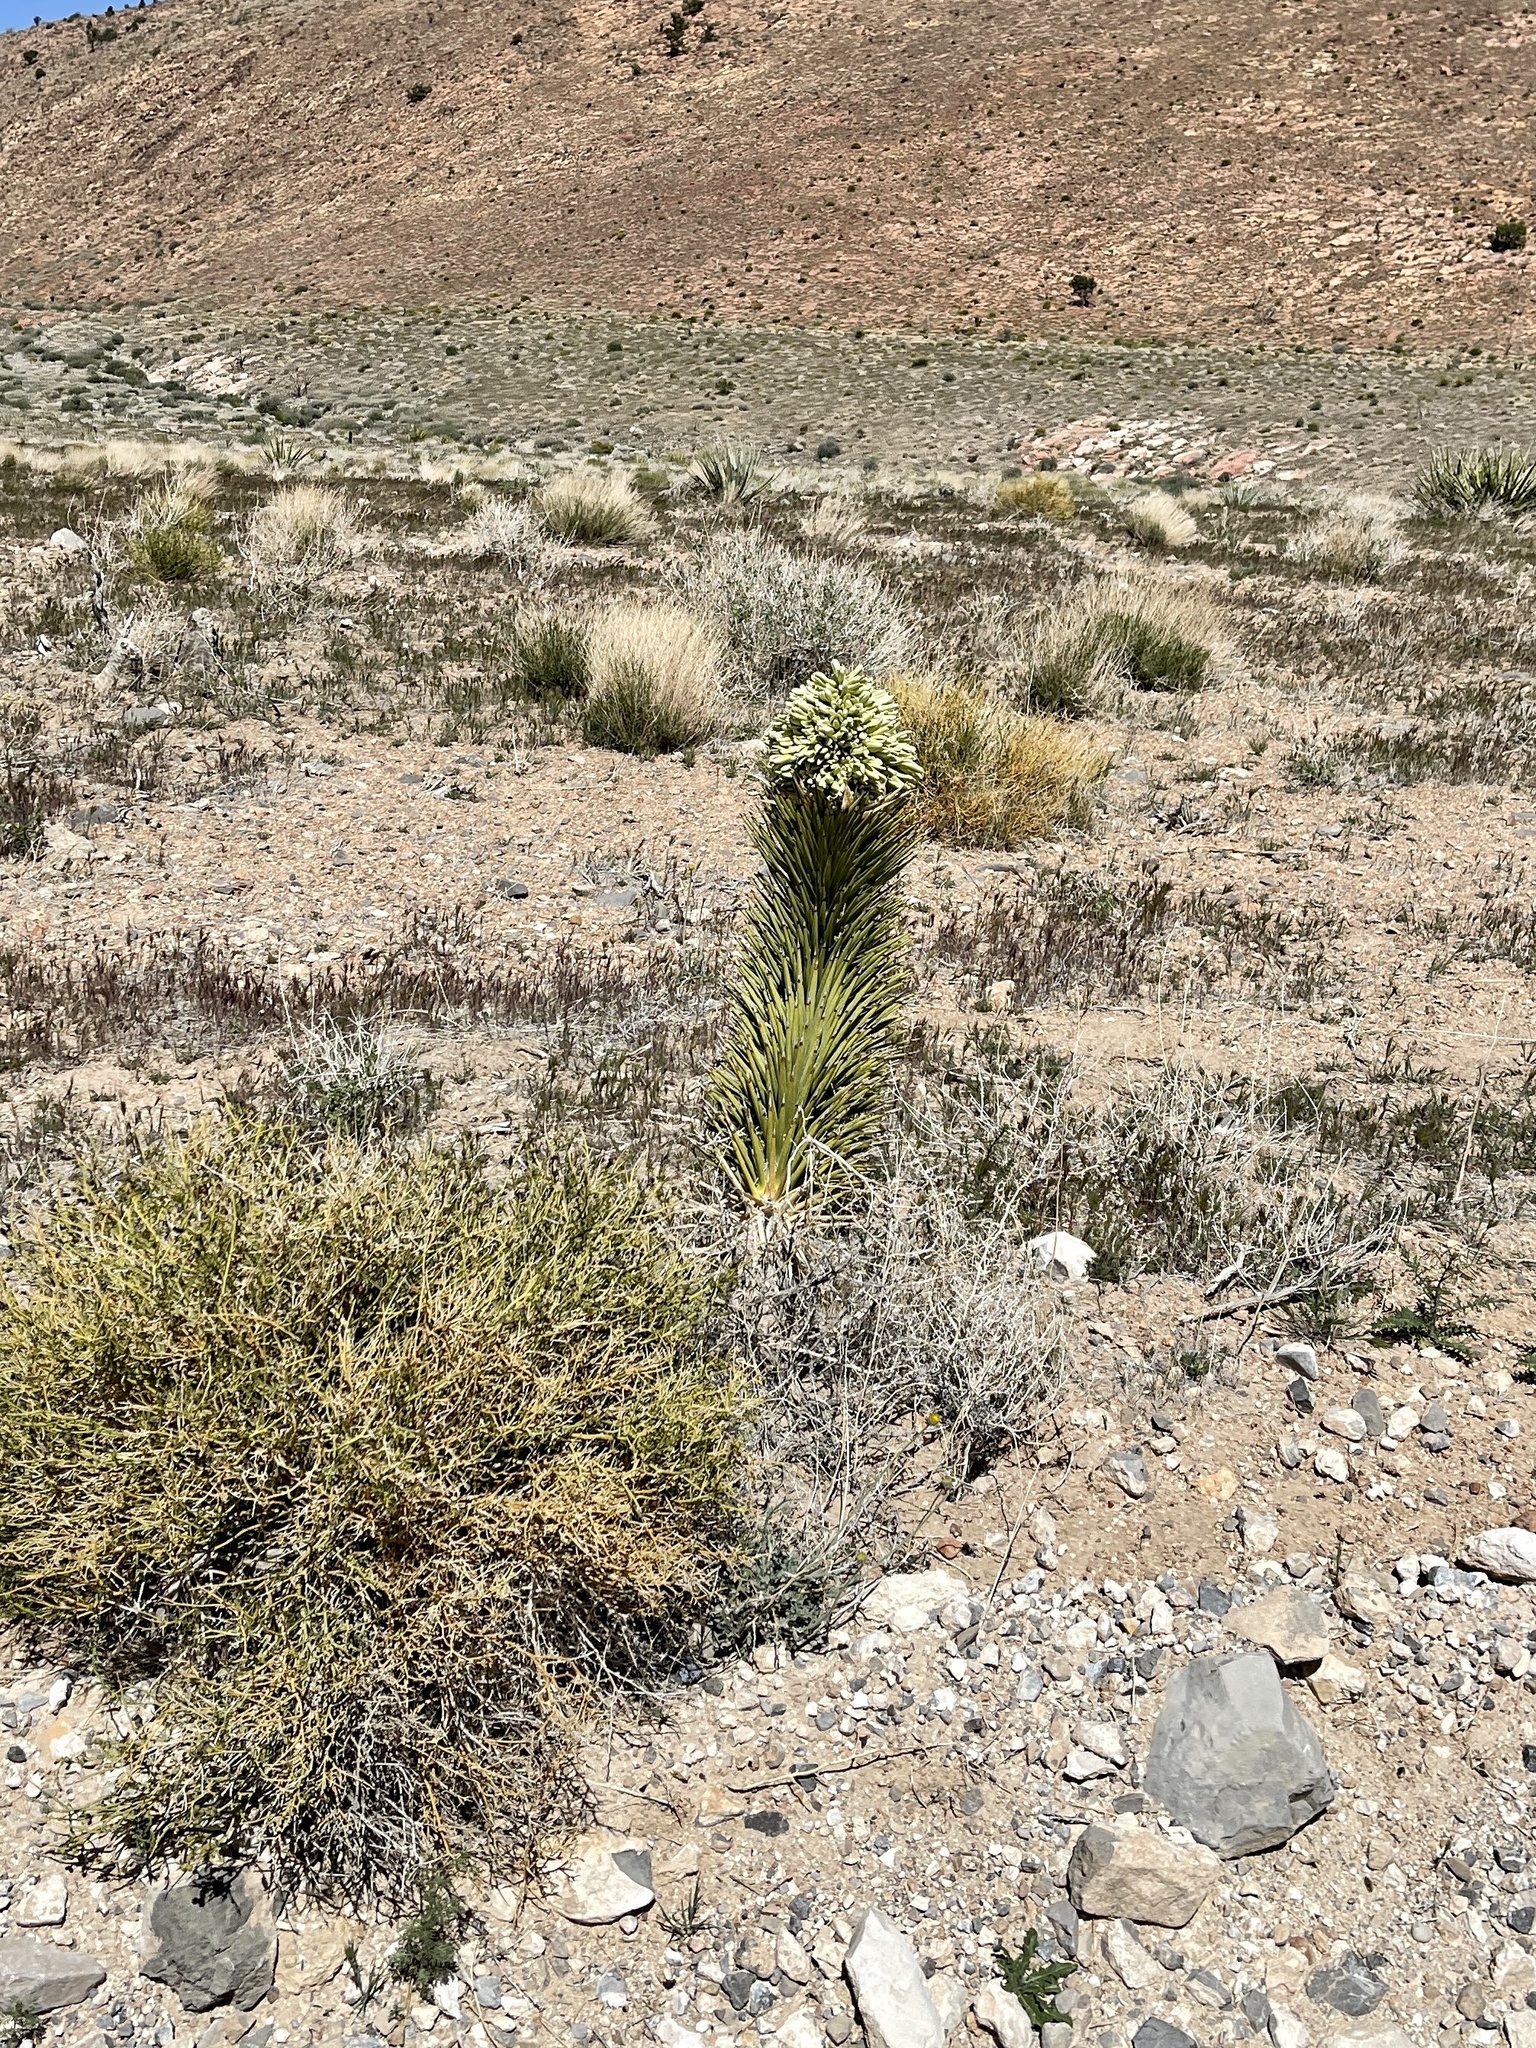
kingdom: Plantae
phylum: Tracheophyta
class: Liliopsida
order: Asparagales
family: Asparagaceae
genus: Yucca
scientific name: Yucca brevifolia
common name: Joshua tree
